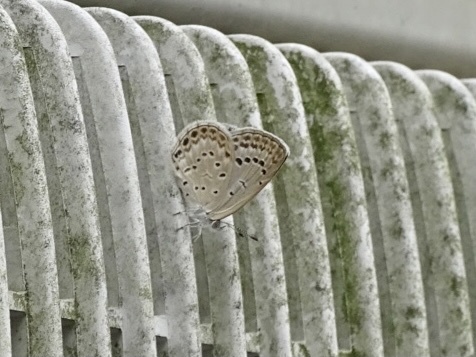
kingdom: Animalia
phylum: Arthropoda
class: Insecta
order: Lepidoptera
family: Lycaenidae
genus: Pseudozizeeria
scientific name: Pseudozizeeria maha
